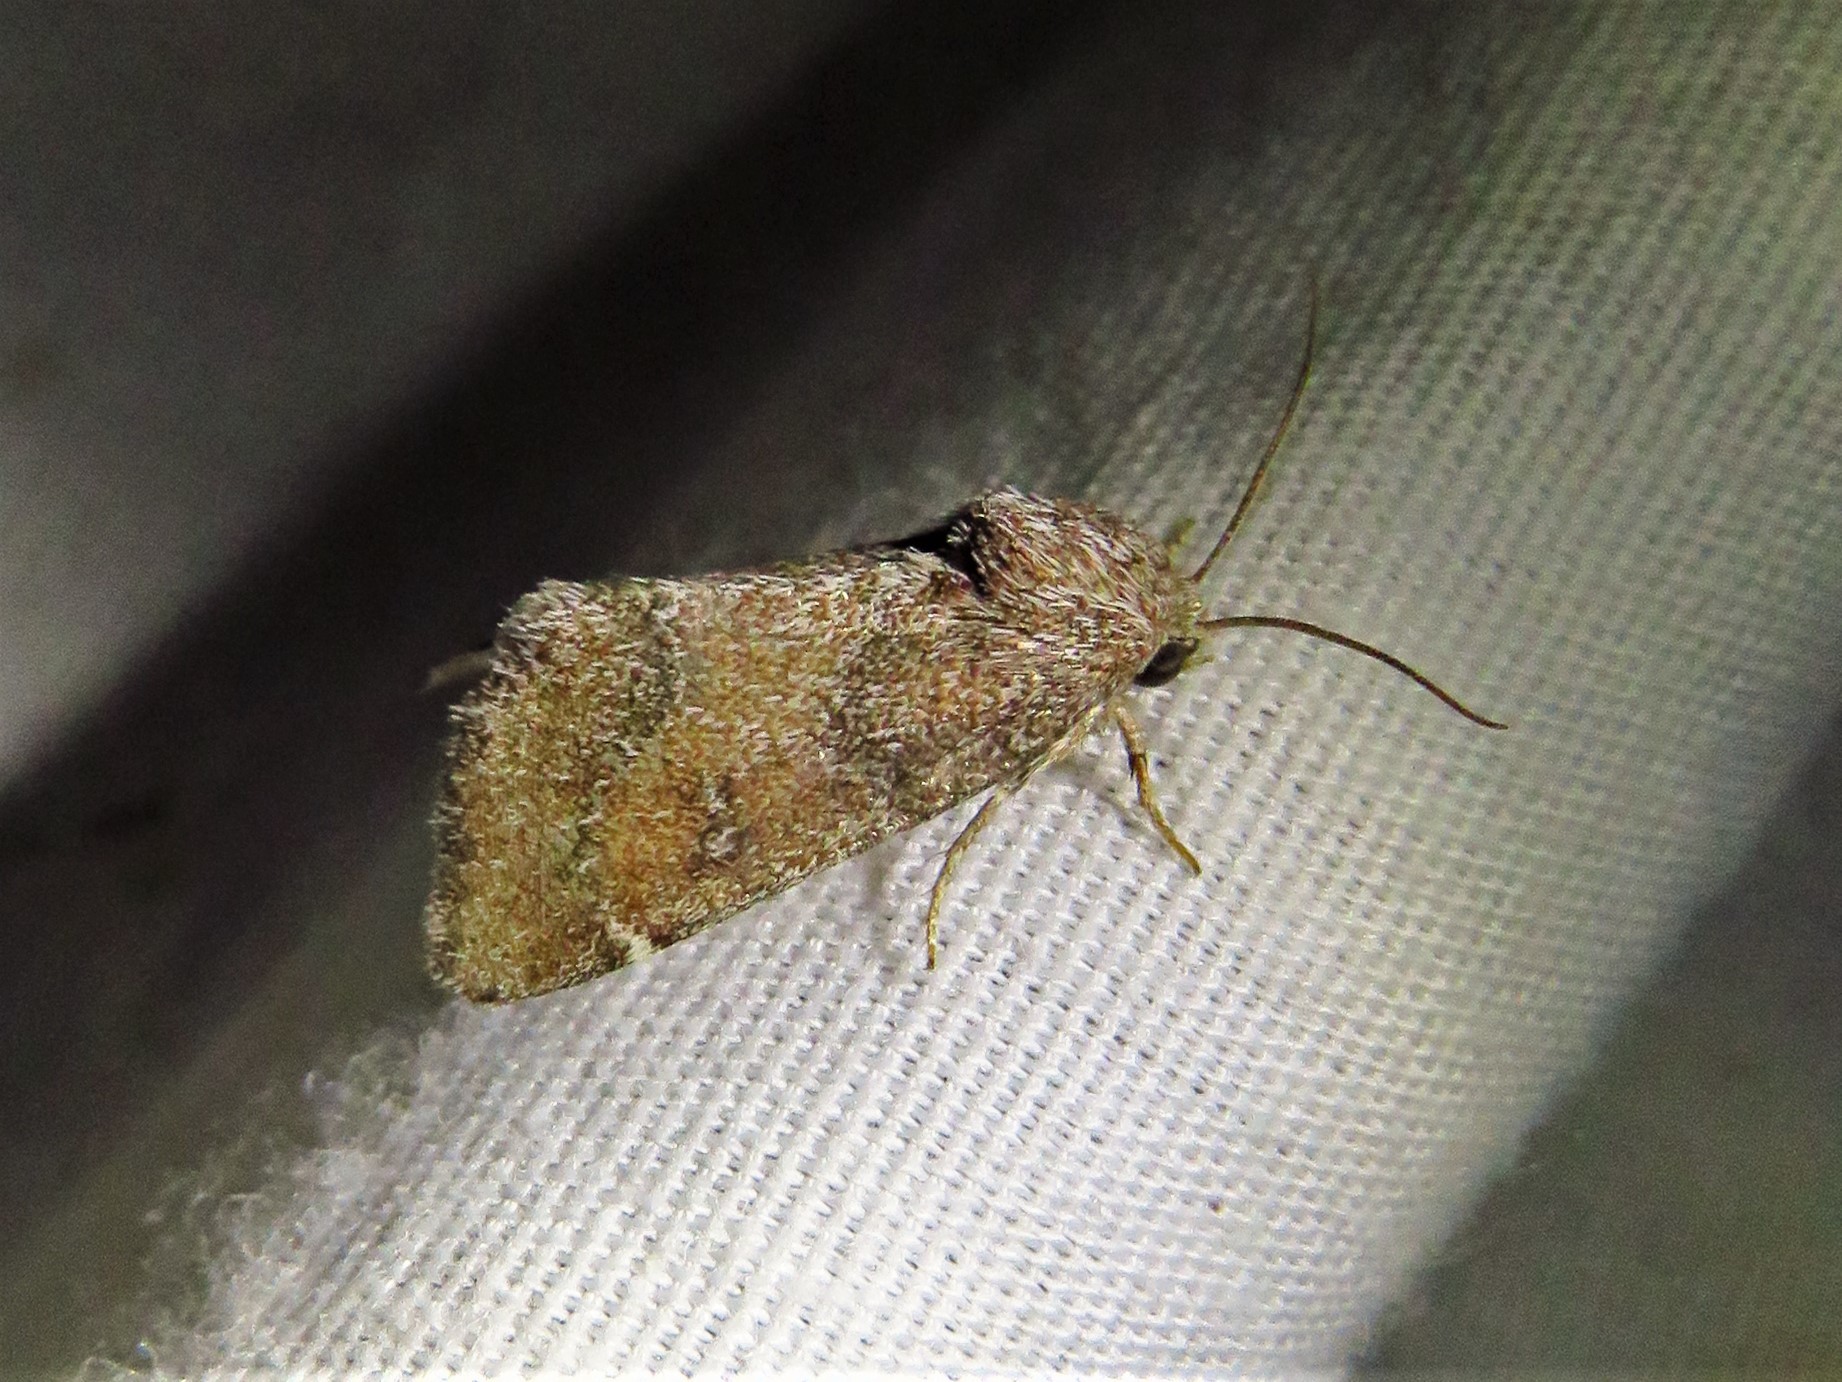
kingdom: Animalia
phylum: Arthropoda
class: Insecta
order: Lepidoptera
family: Noctuidae
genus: Schinia
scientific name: Schinia saturata
